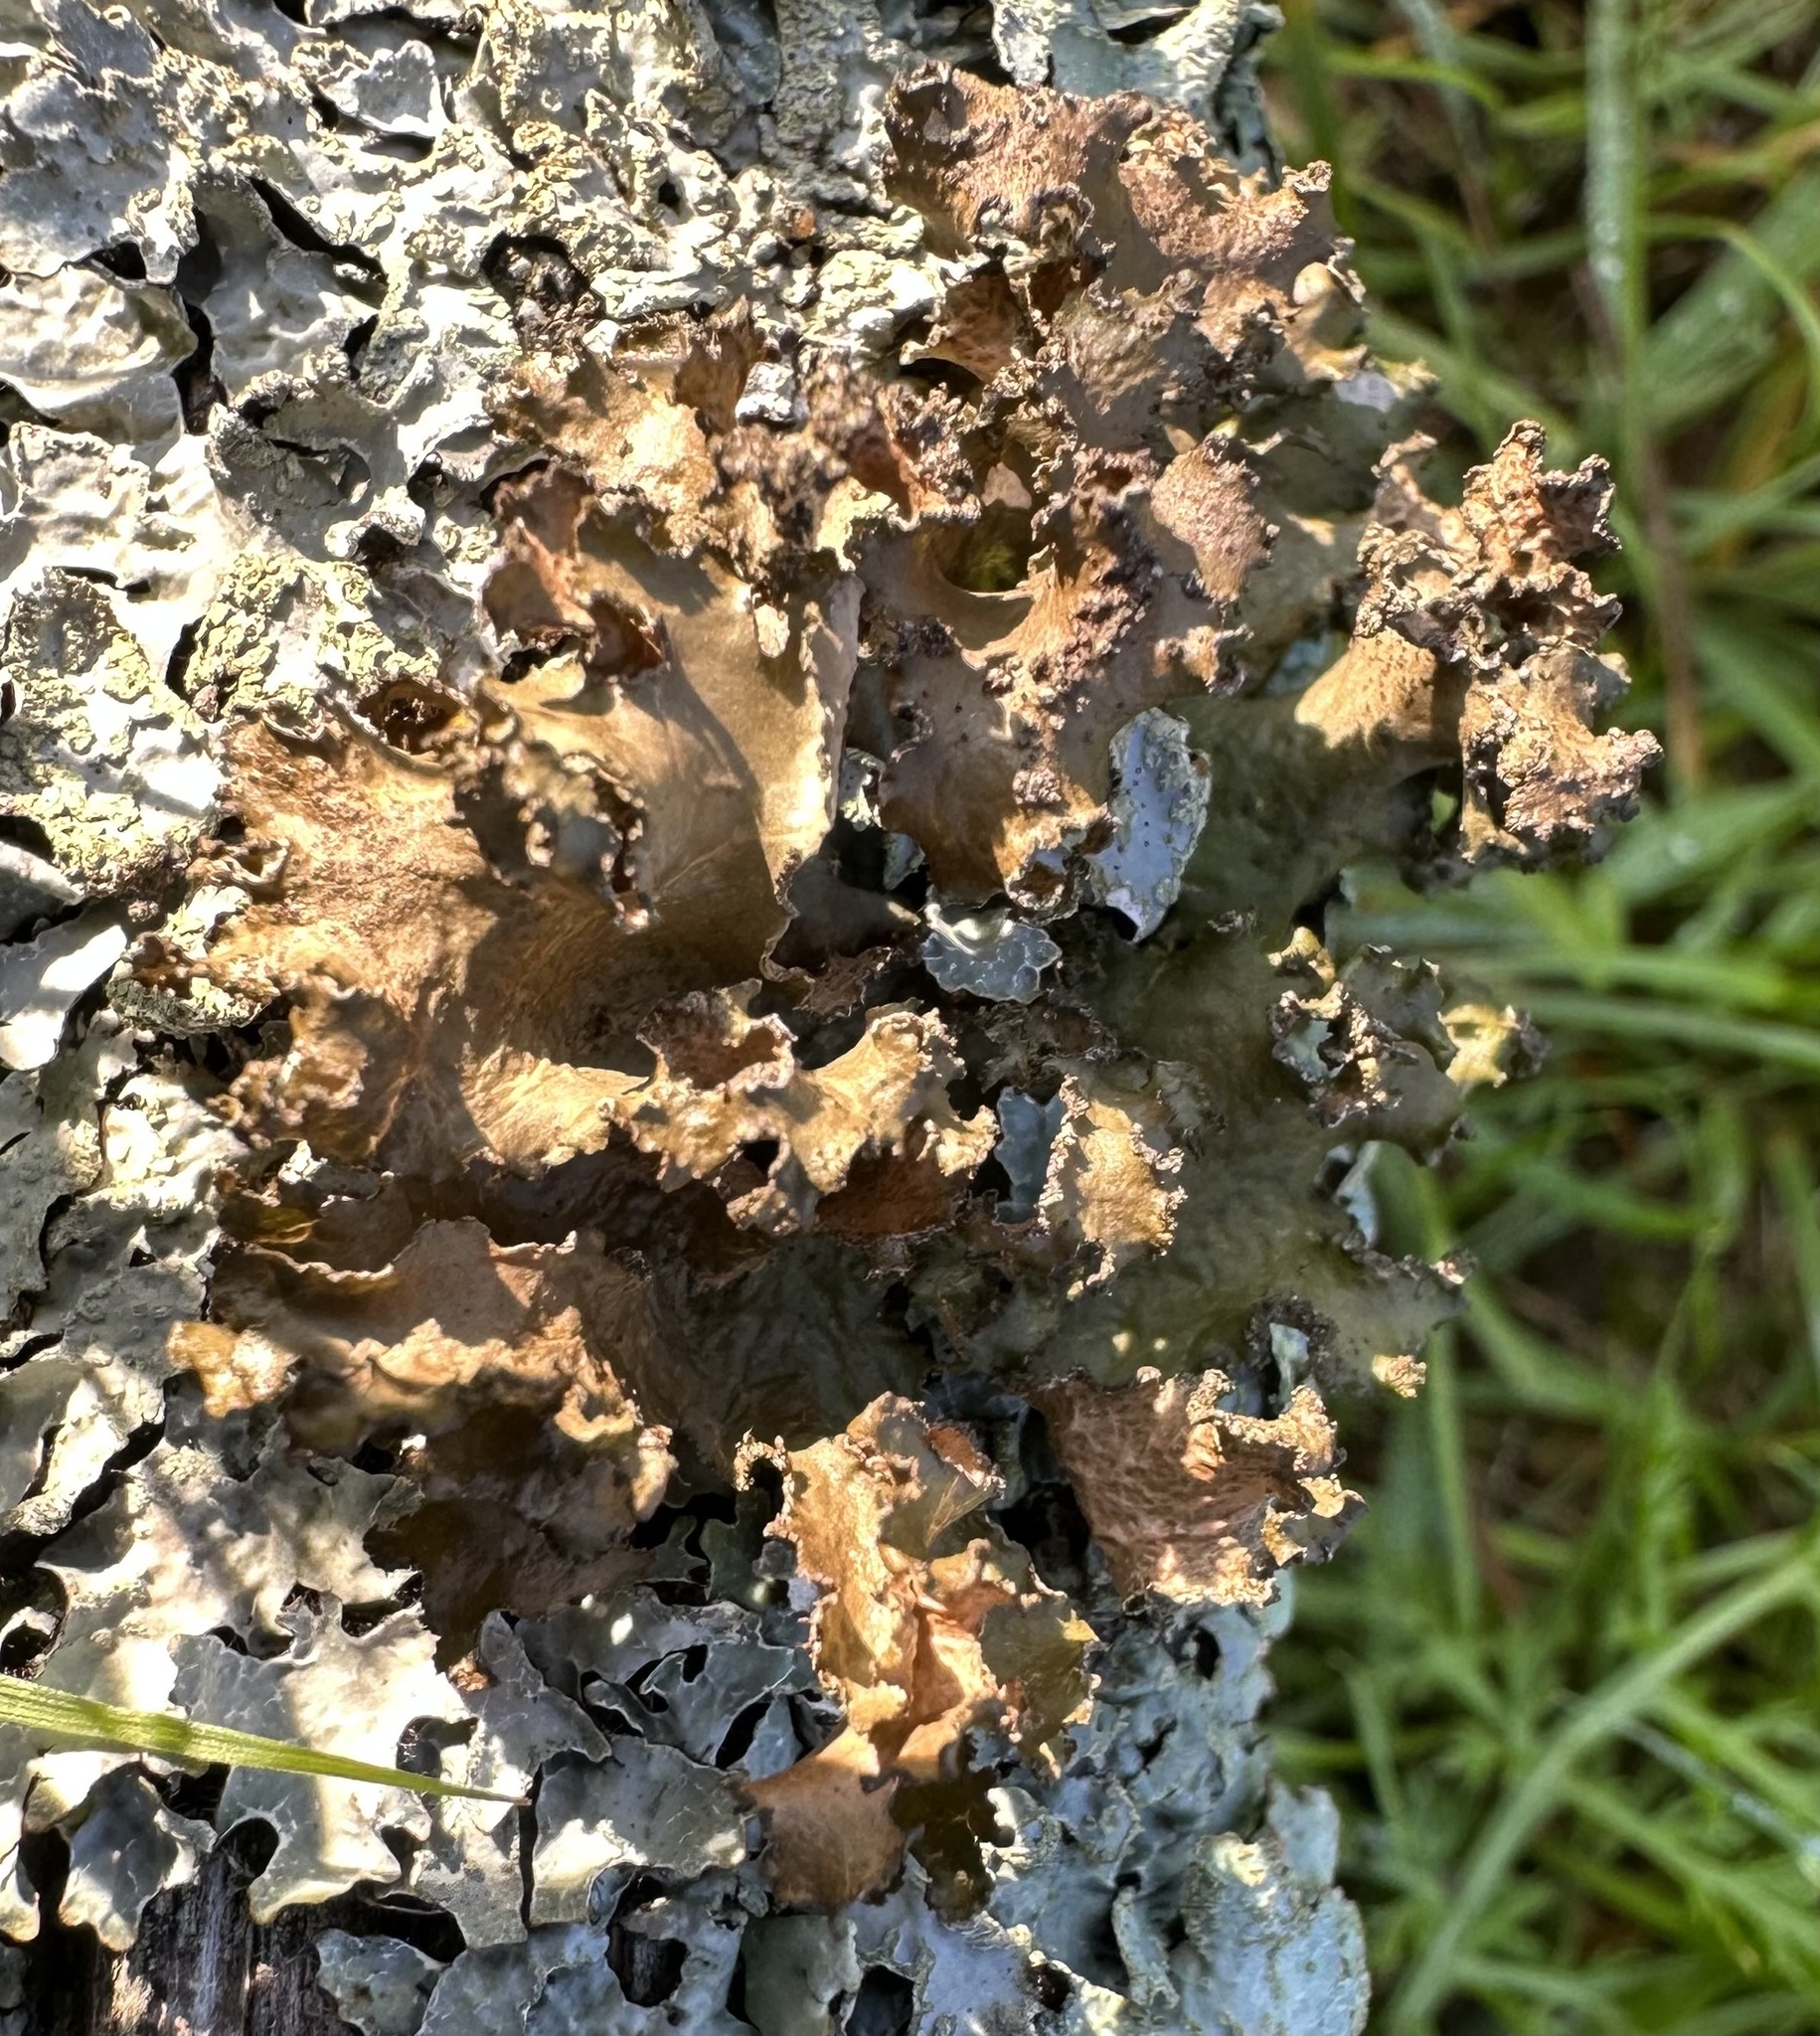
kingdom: Fungi
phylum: Ascomycota
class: Lecanoromycetes
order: Lecanorales
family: Parmeliaceae
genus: Nephromopsis
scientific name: Nephromopsis chlorophylla
